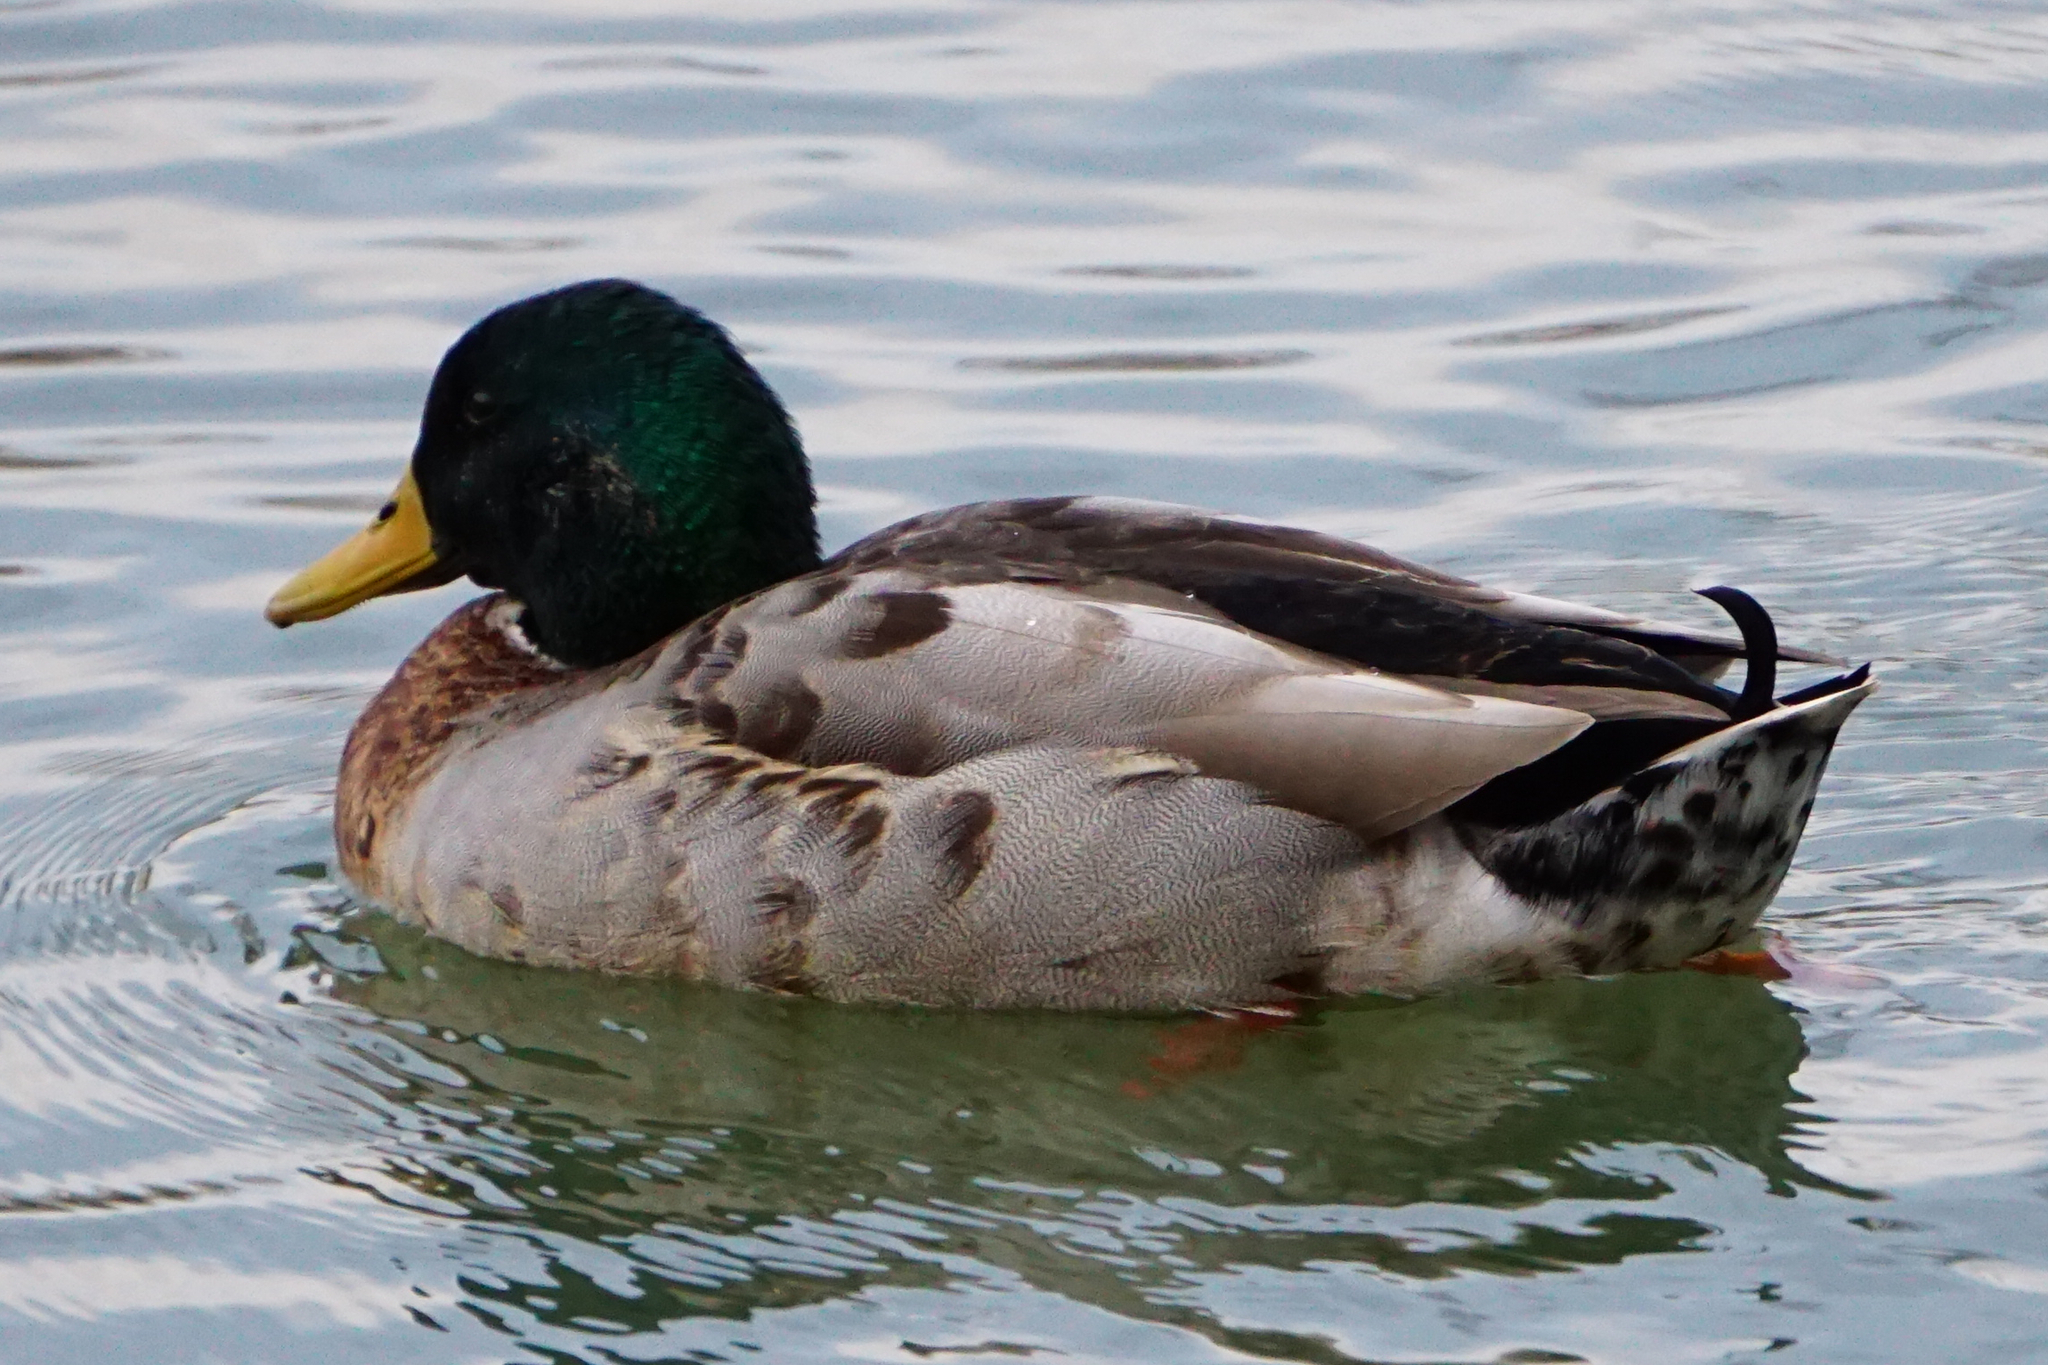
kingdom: Animalia
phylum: Chordata
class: Aves
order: Anseriformes
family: Anatidae
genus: Anas
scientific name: Anas platyrhynchos
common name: Mallard
